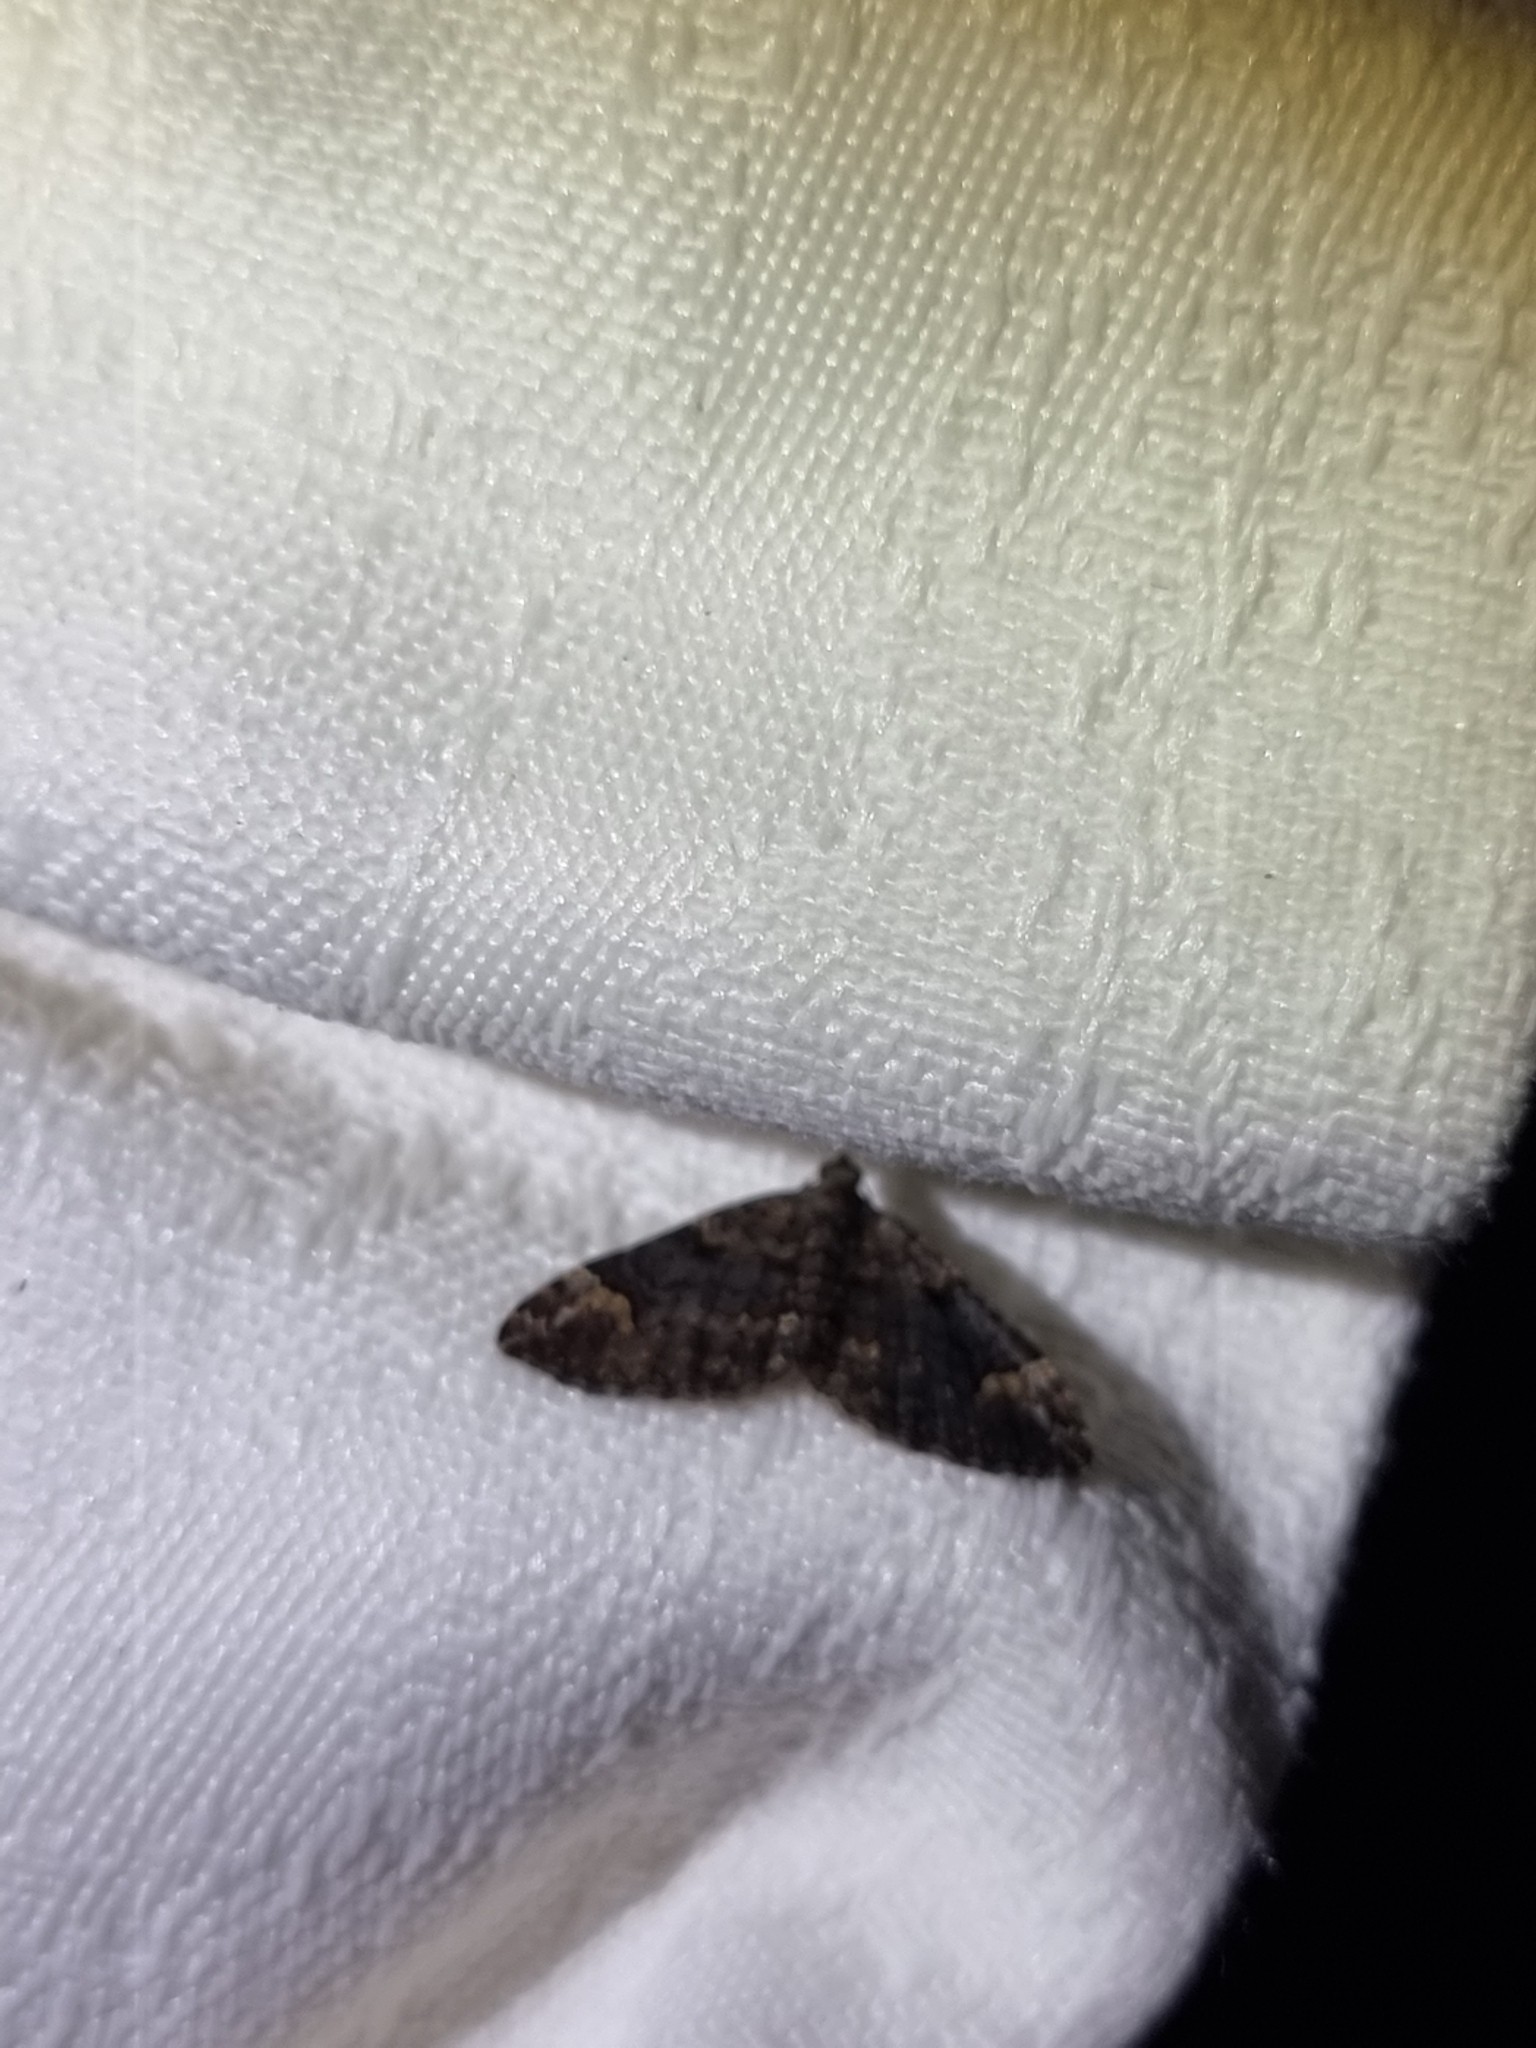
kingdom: Animalia
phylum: Arthropoda
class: Insecta
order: Lepidoptera
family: Geometridae
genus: Epyaxa
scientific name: Epyaxa sodaliata
